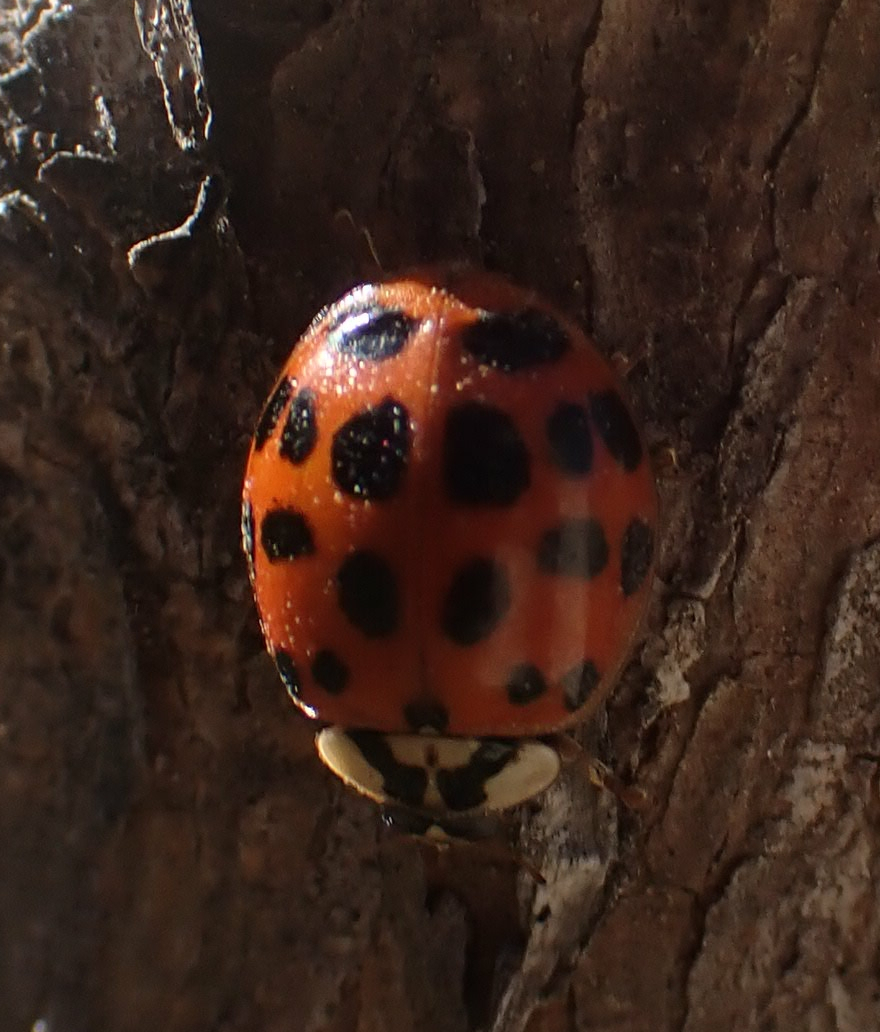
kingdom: Animalia
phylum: Arthropoda
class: Insecta
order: Coleoptera
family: Coccinellidae
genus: Harmonia
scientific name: Harmonia axyridis
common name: Harlequin ladybird
